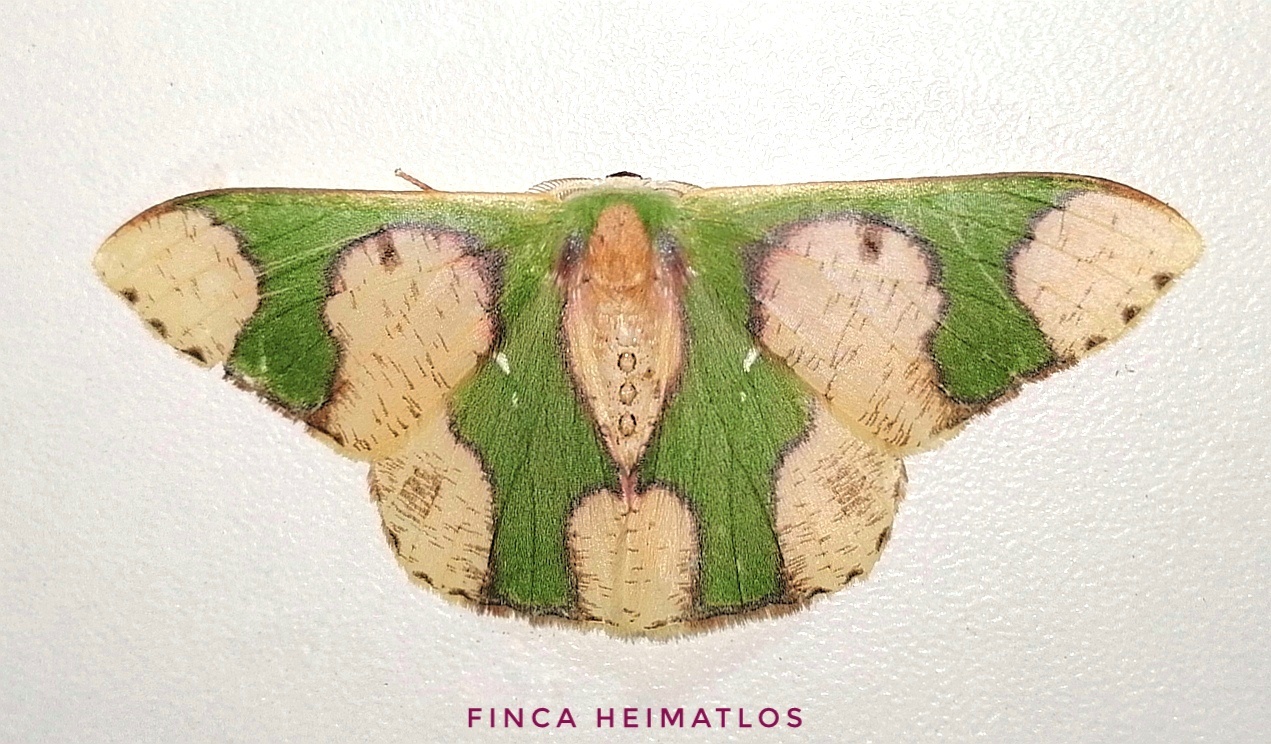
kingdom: Animalia
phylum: Arthropoda
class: Insecta
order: Lepidoptera
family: Geometridae
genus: Oospila
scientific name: Oospila albicoma
